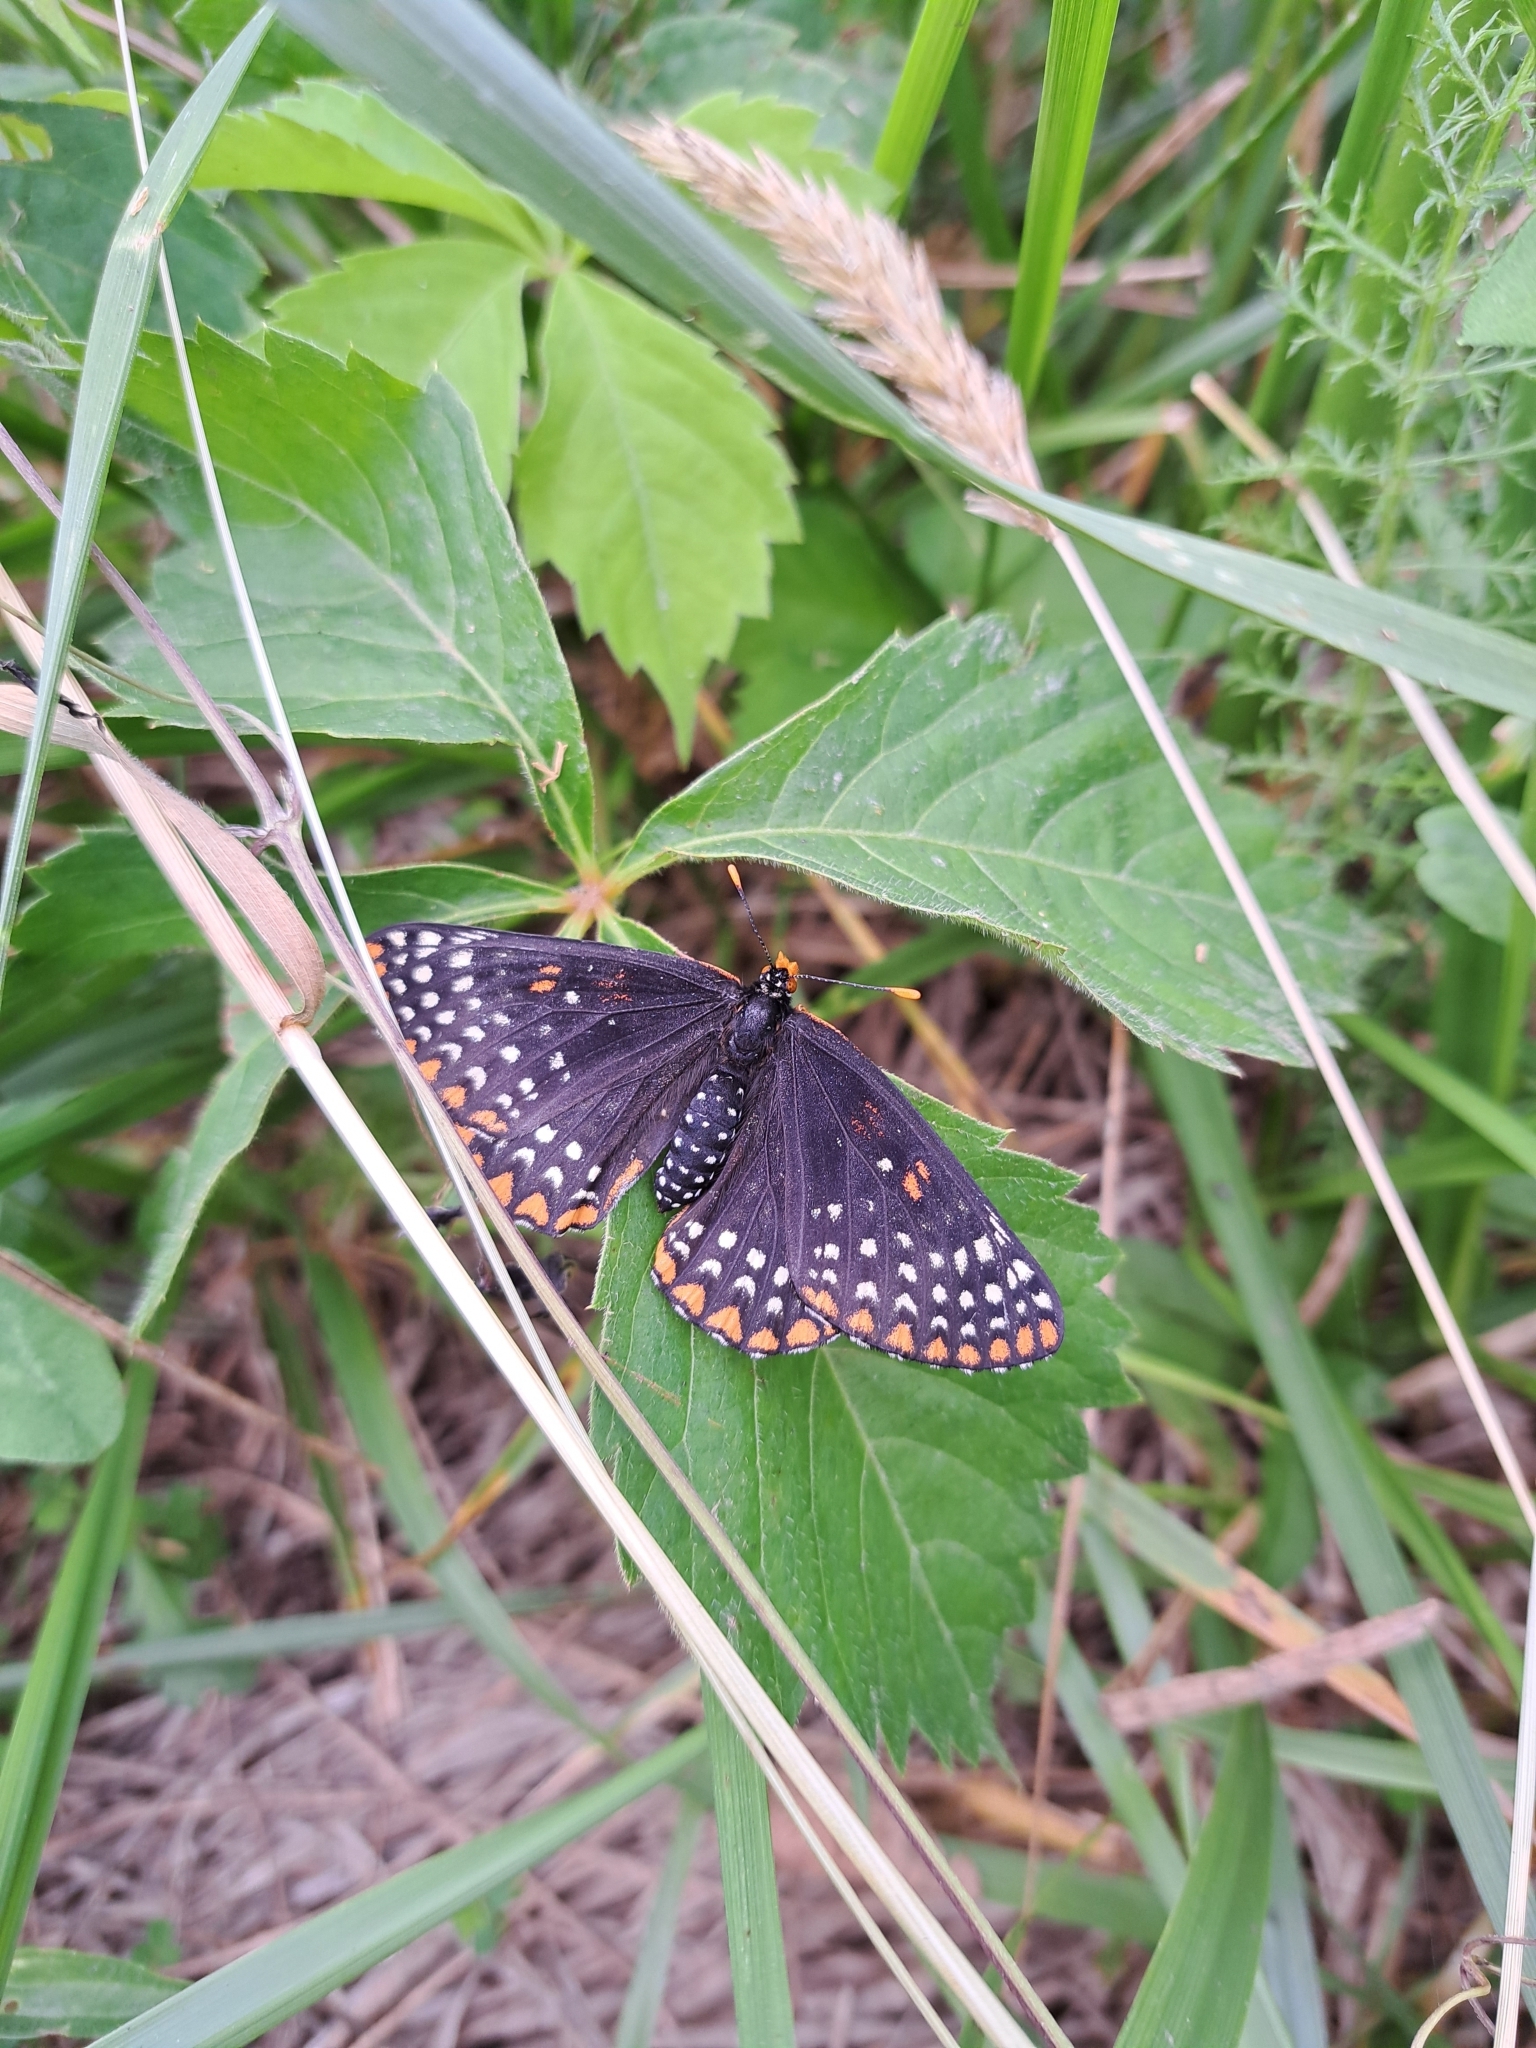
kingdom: Animalia
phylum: Arthropoda
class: Insecta
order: Lepidoptera
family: Nymphalidae
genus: Euphydryas
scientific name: Euphydryas phaeton
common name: Baltimore checkerspot
